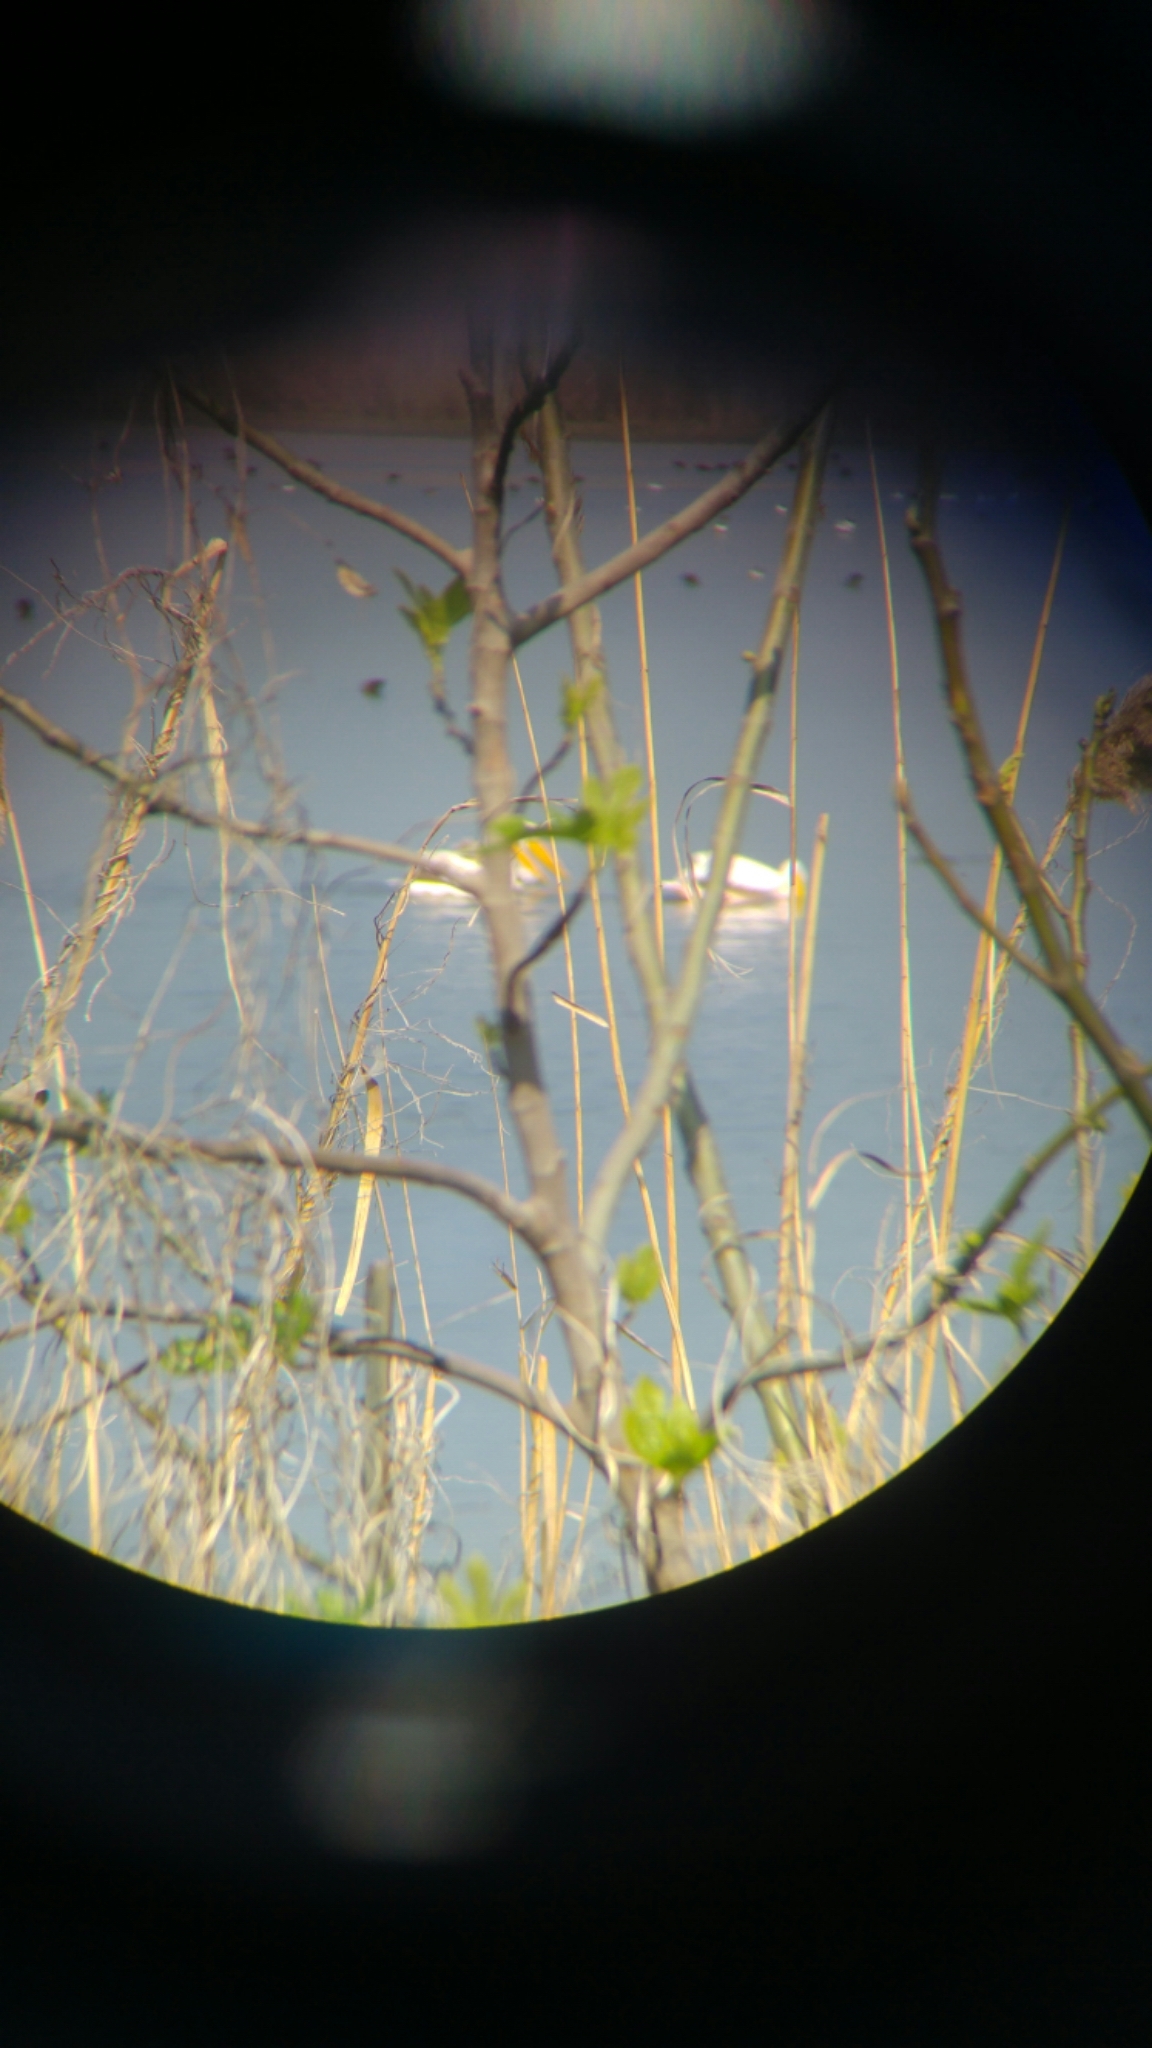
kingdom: Animalia
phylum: Chordata
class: Aves
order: Pelecaniformes
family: Pelecanidae
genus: Pelecanus
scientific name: Pelecanus onocrotalus
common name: Great white pelican
